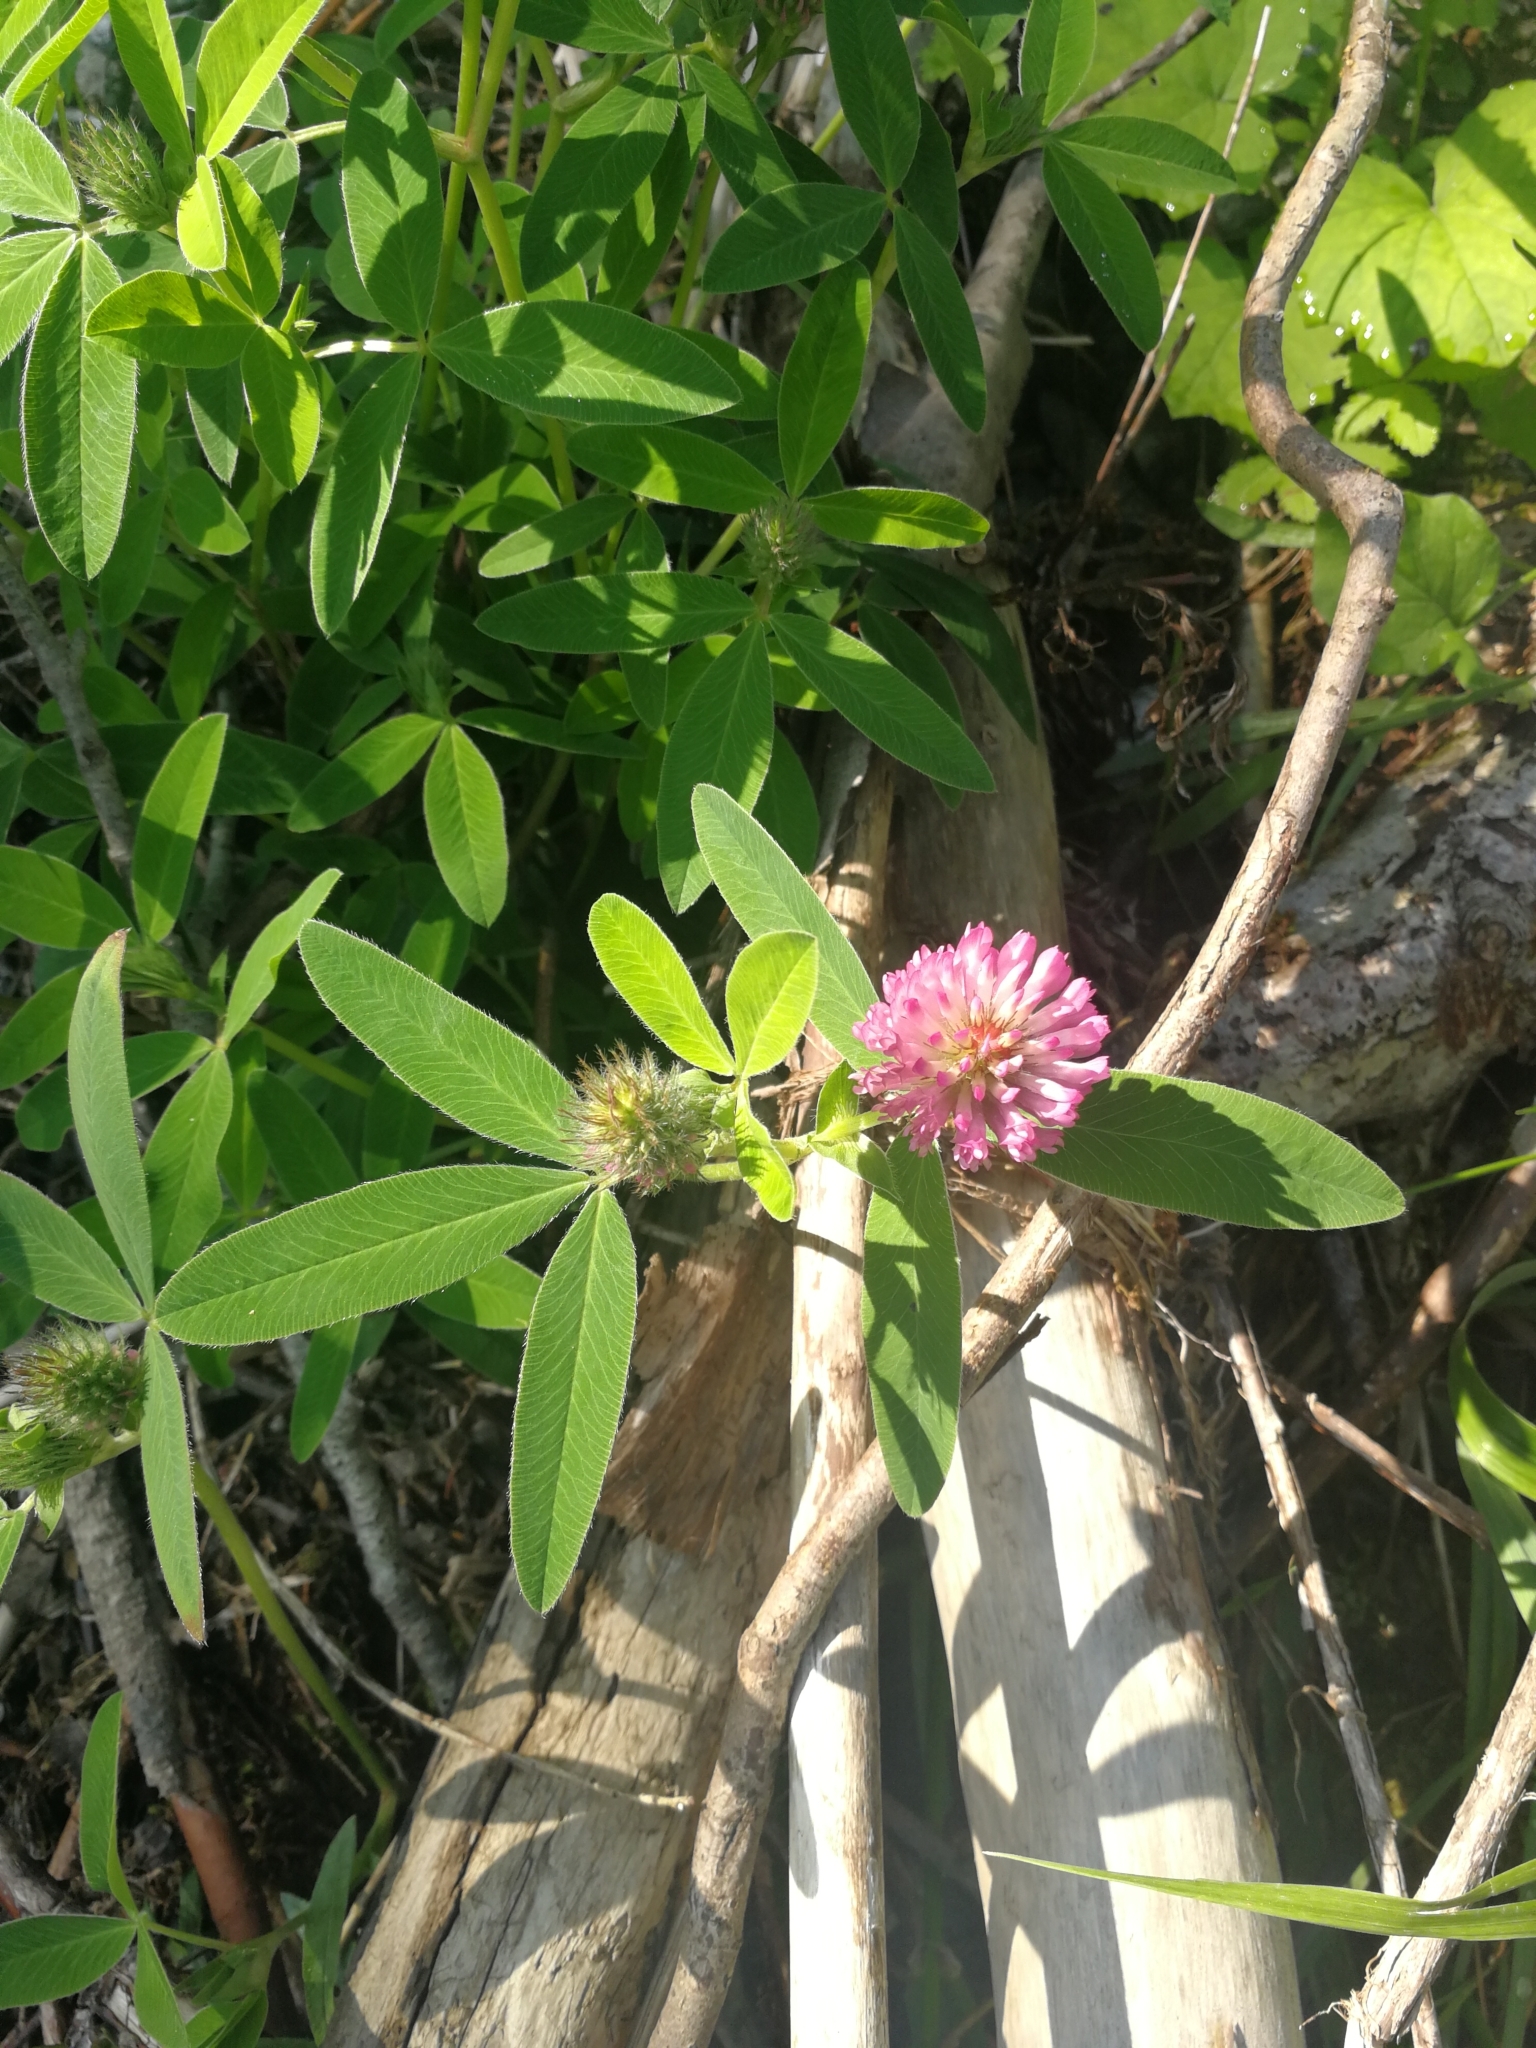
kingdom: Plantae
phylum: Tracheophyta
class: Magnoliopsida
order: Fabales
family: Fabaceae
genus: Trifolium
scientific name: Trifolium alpestre
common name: Owl-head clover
